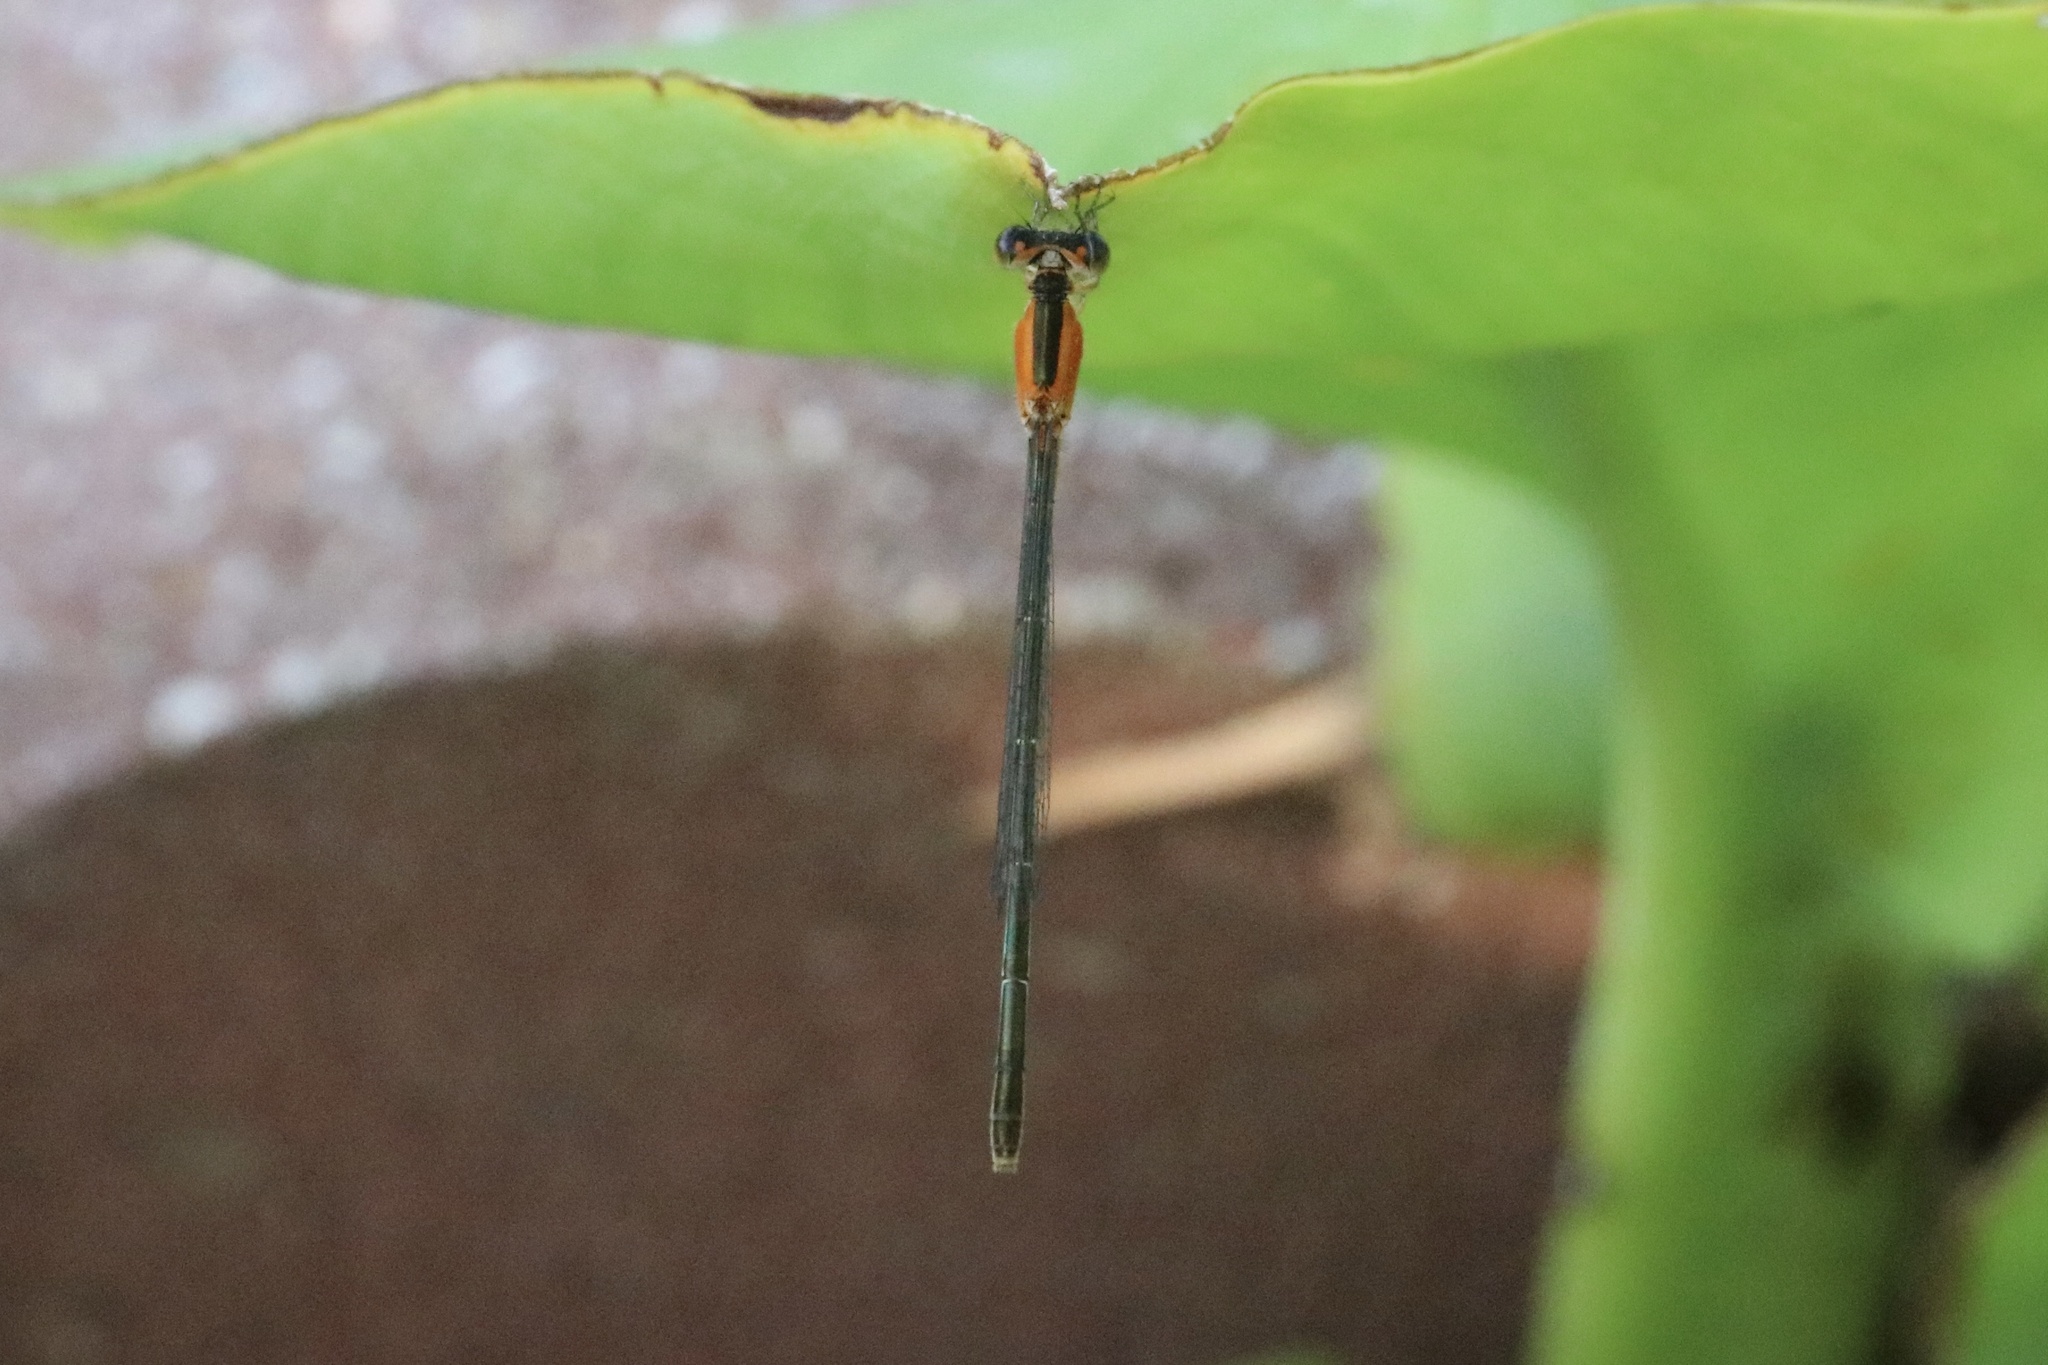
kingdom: Animalia
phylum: Arthropoda
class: Insecta
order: Odonata
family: Coenagrionidae
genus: Ischnura
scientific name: Ischnura ramburii
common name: Rambur's forktail
